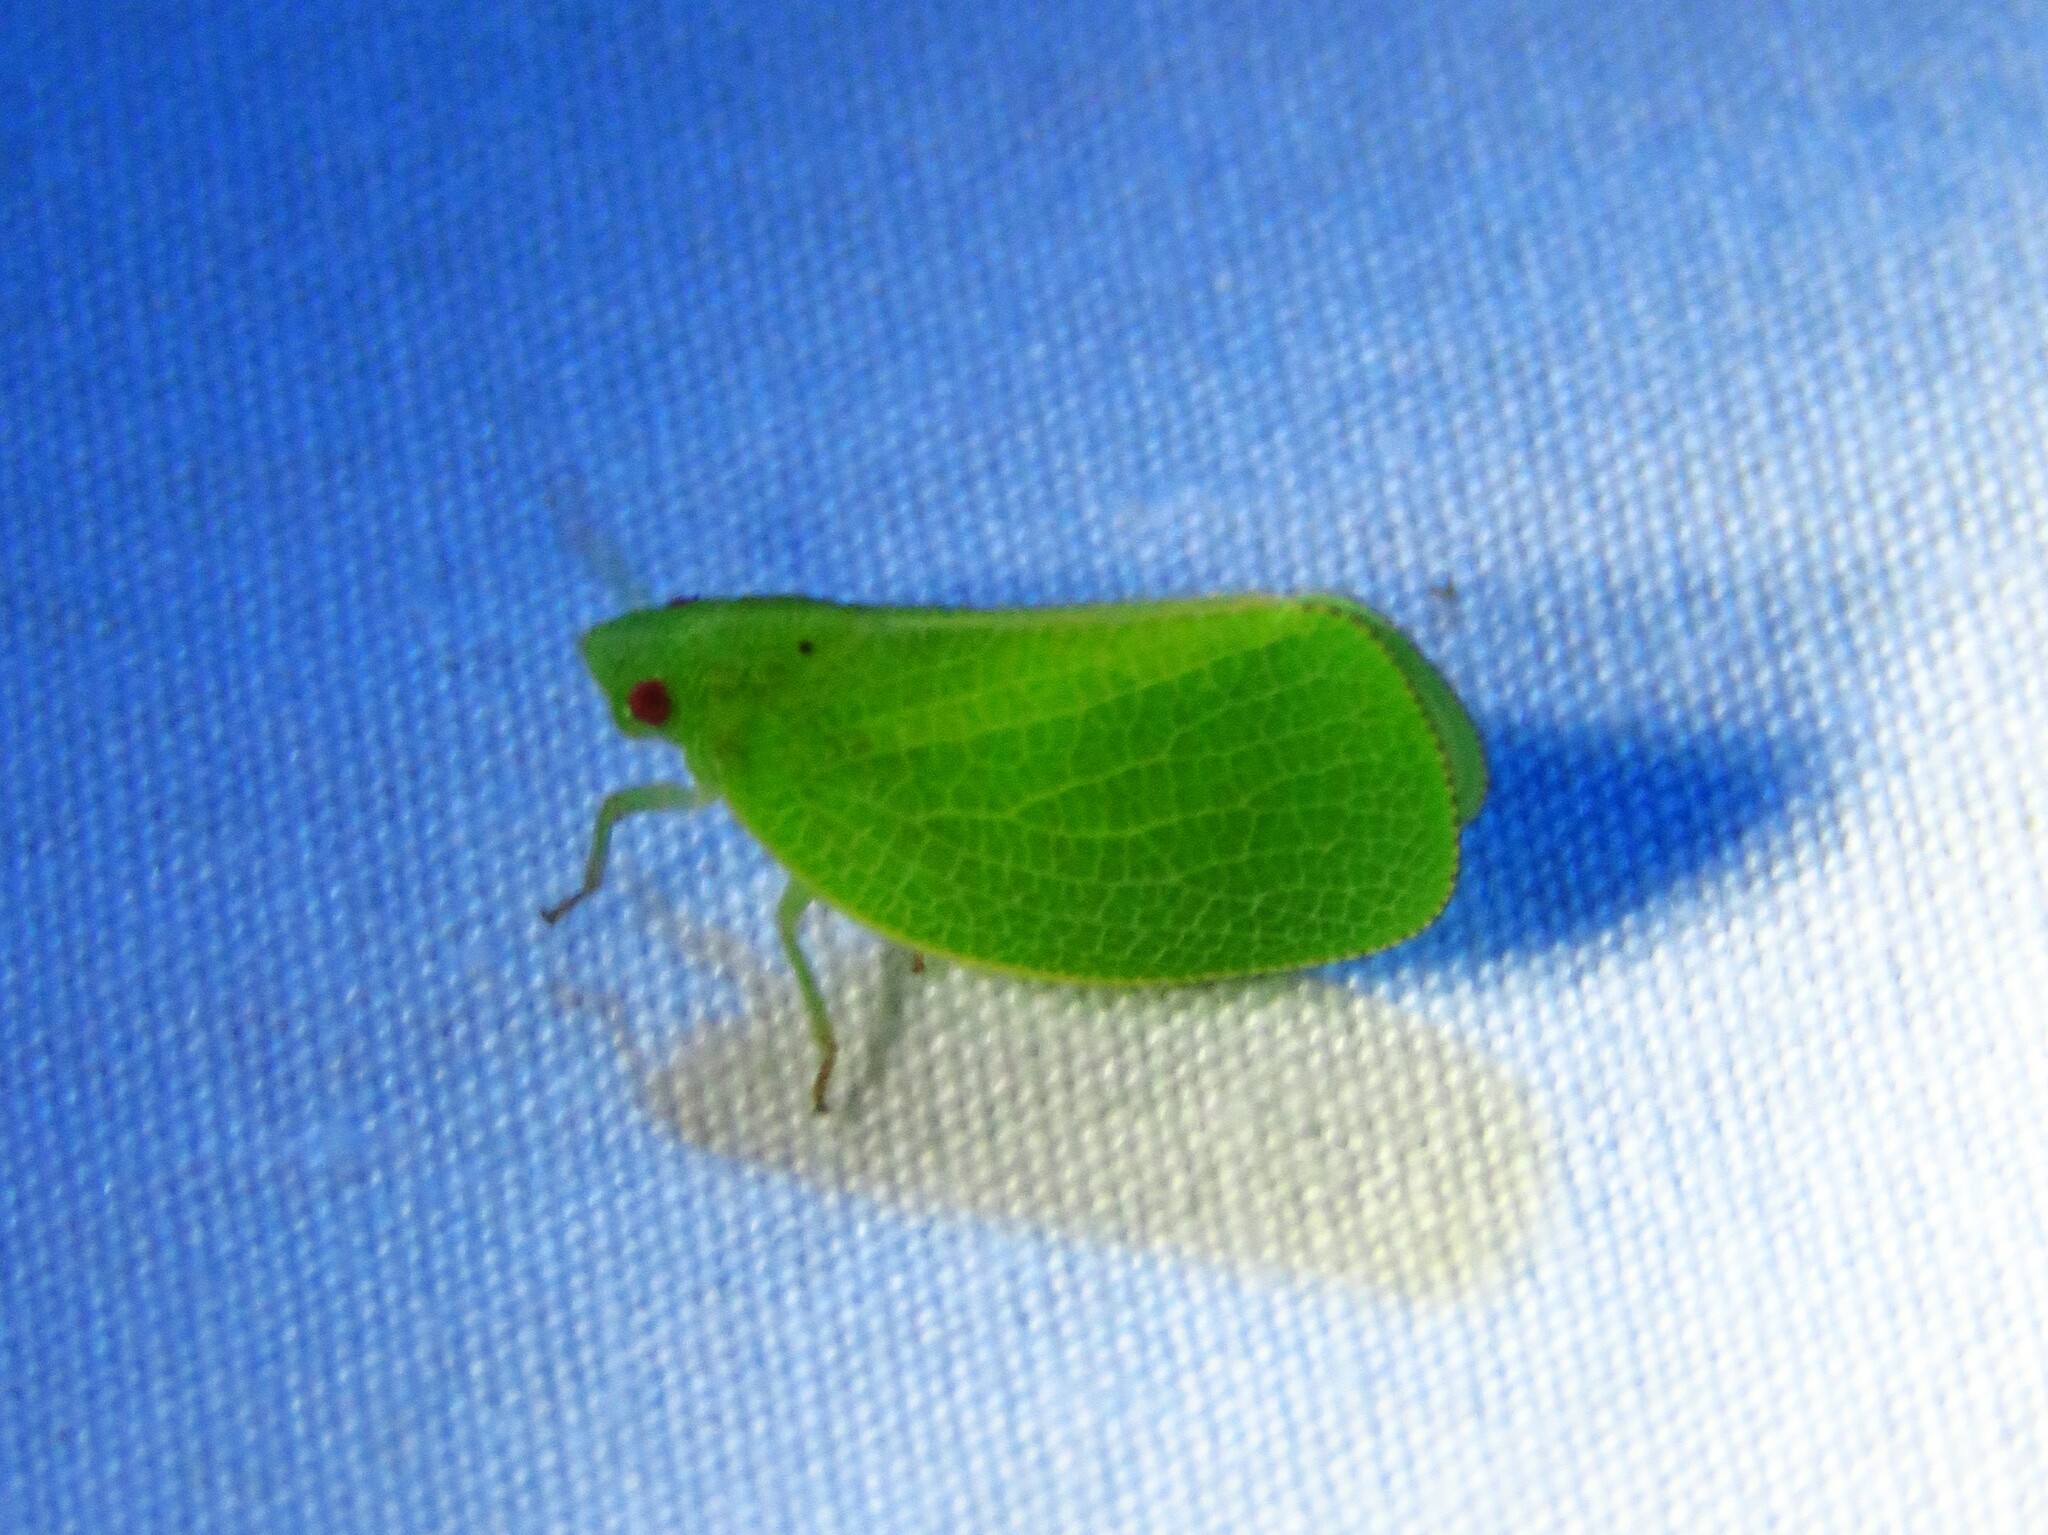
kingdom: Animalia
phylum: Arthropoda
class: Insecta
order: Hemiptera
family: Acanaloniidae
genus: Acanalonia
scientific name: Acanalonia conica
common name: Green cone-headed planthopper
